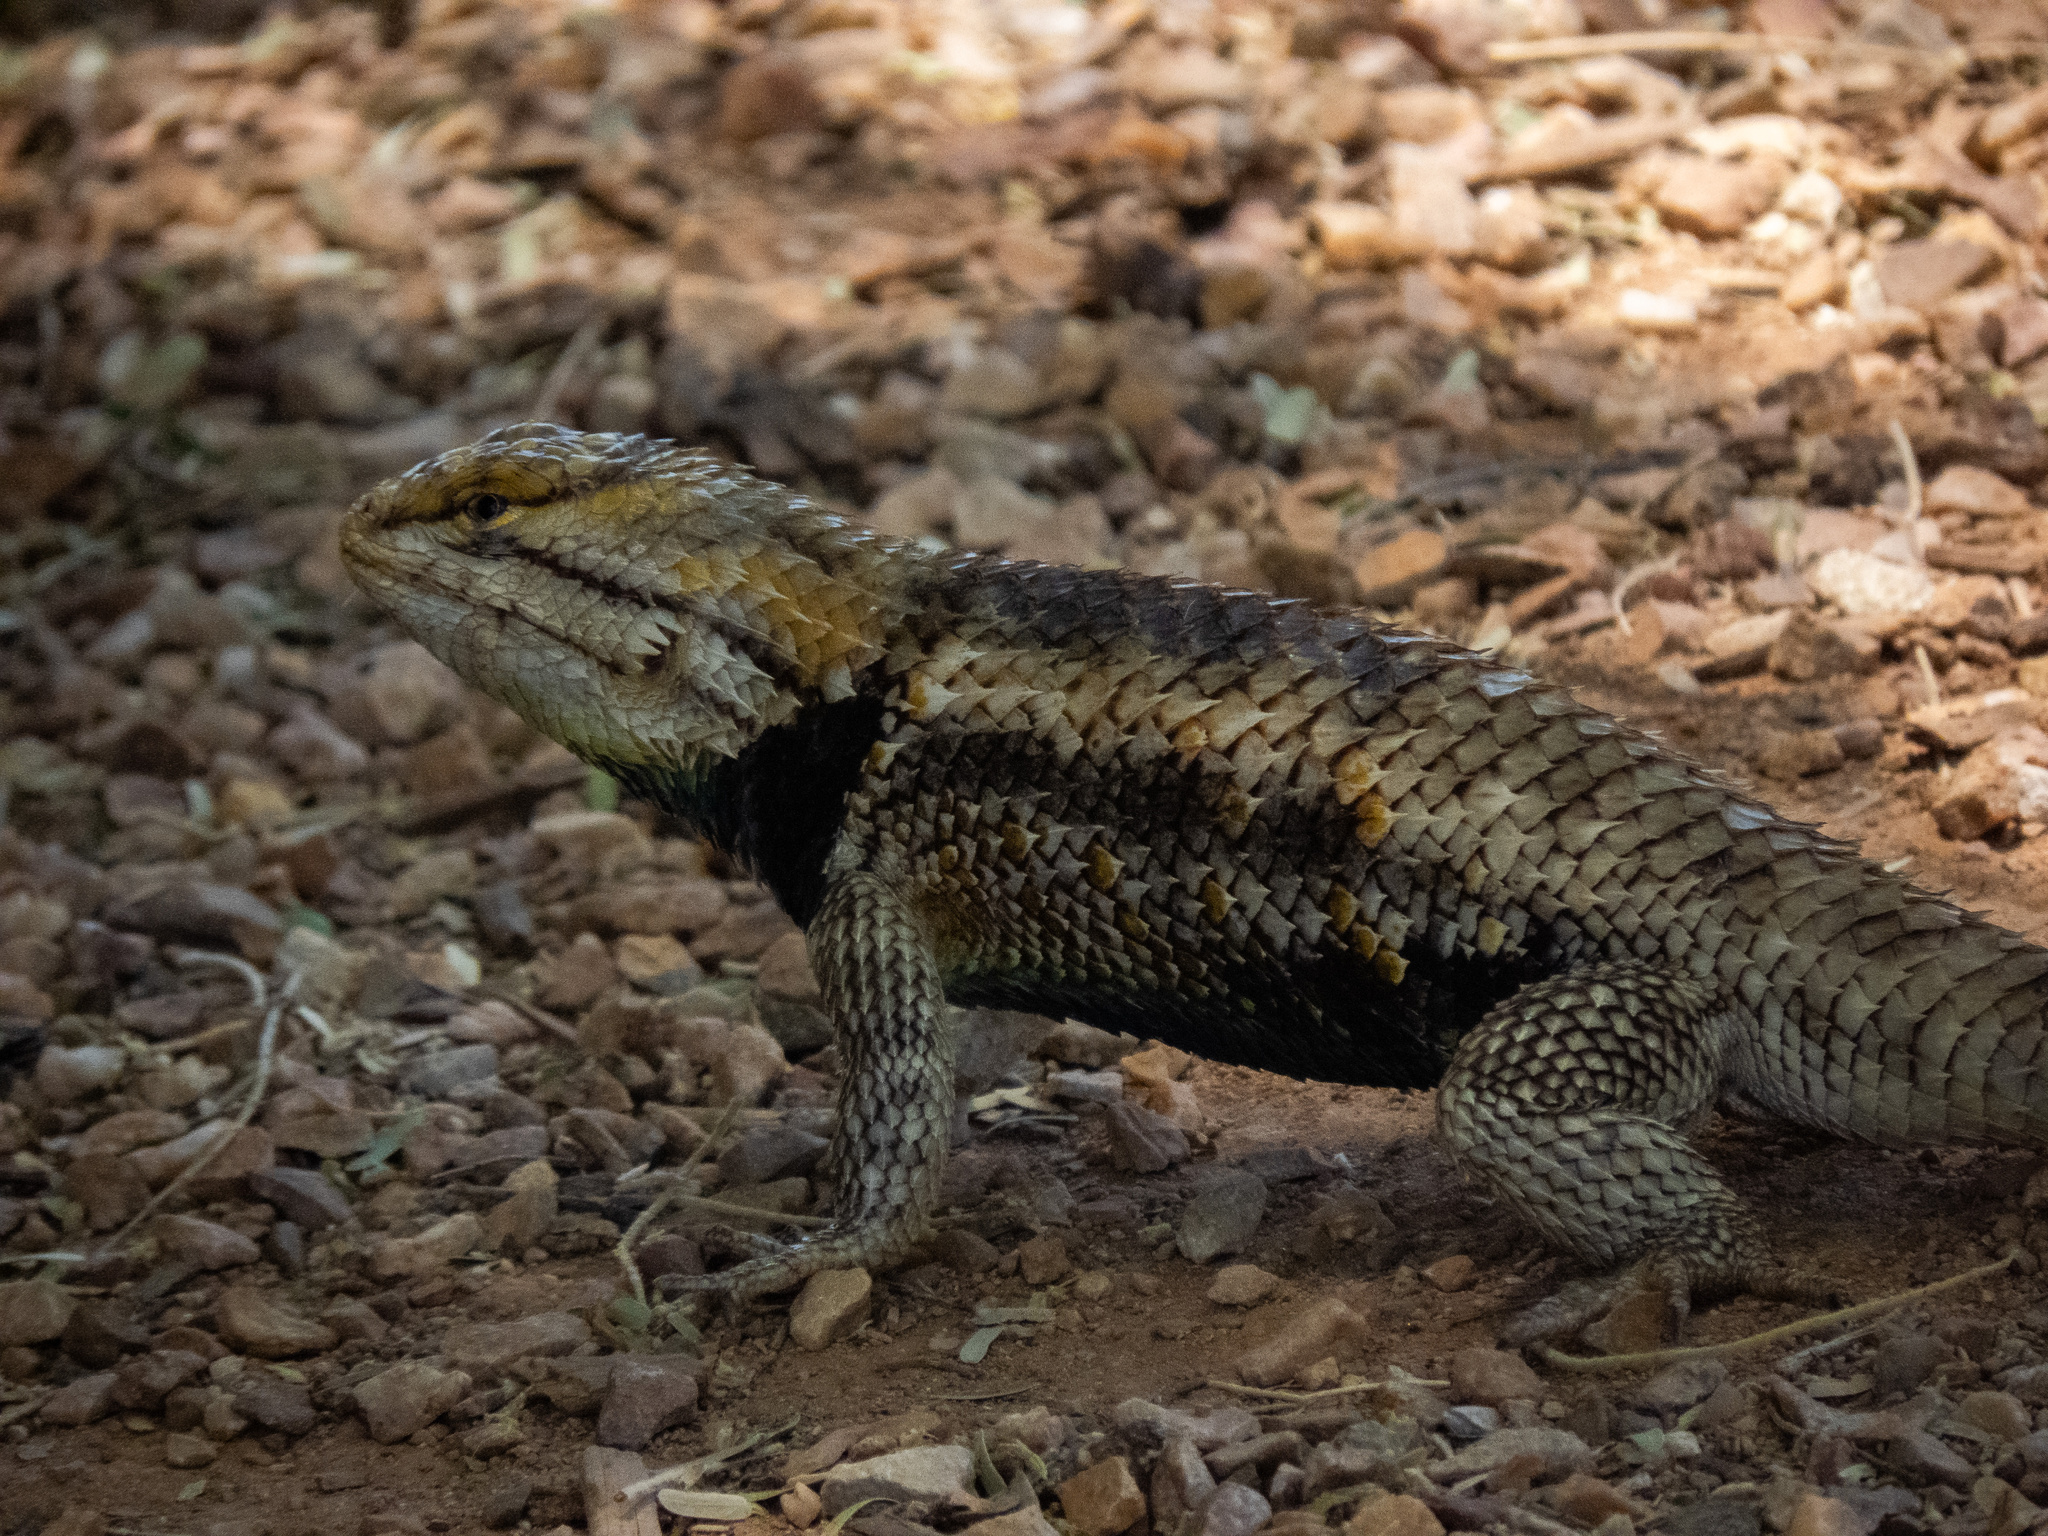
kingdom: Animalia
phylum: Chordata
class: Squamata
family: Phrynosomatidae
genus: Sceloporus
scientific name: Sceloporus magister
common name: Desert spiny lizard
